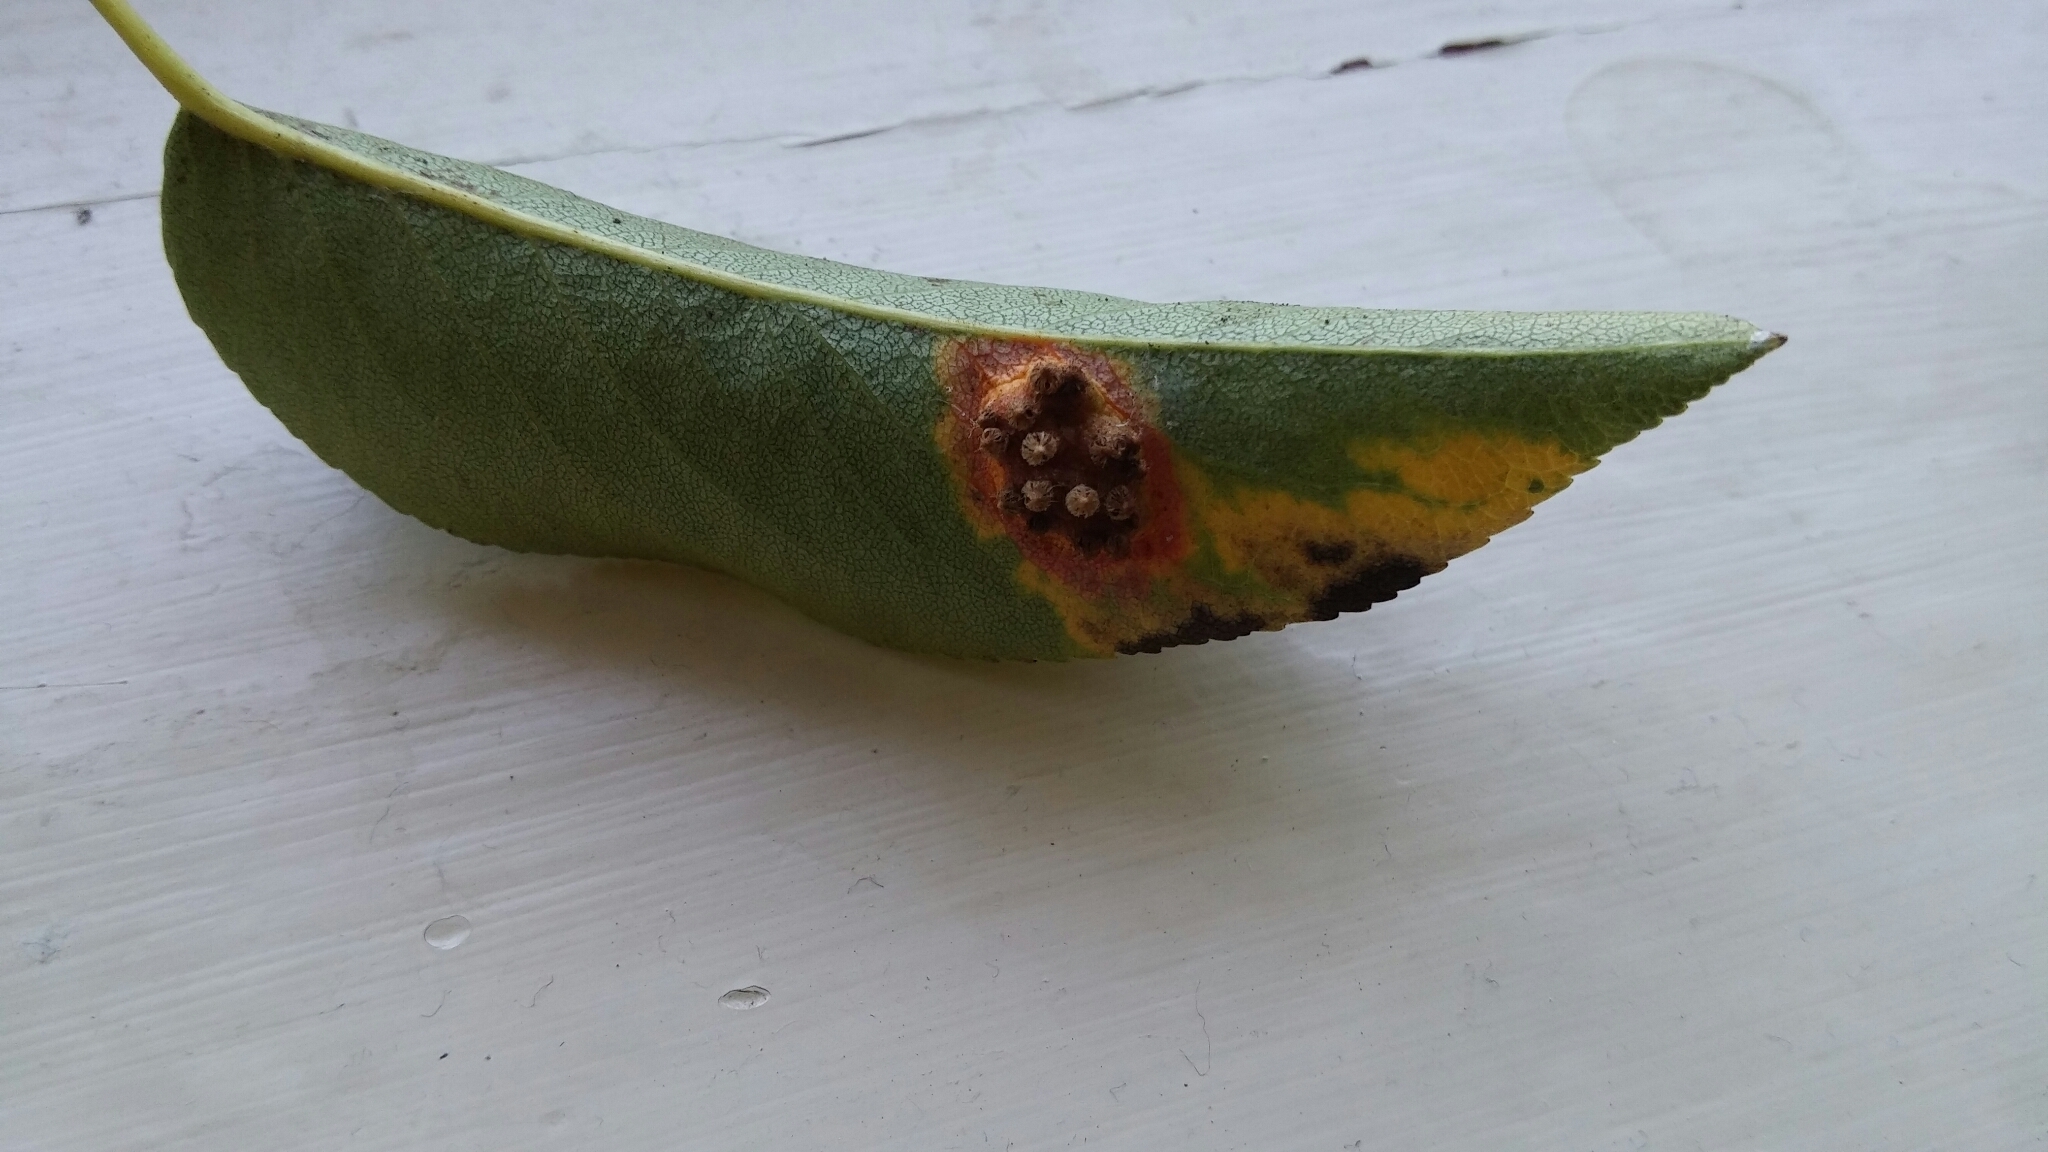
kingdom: Fungi
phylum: Basidiomycota
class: Pucciniomycetes
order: Pucciniales
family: Gymnosporangiaceae
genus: Gymnosporangium
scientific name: Gymnosporangium sabinae
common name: Pear trellis rust fungus
